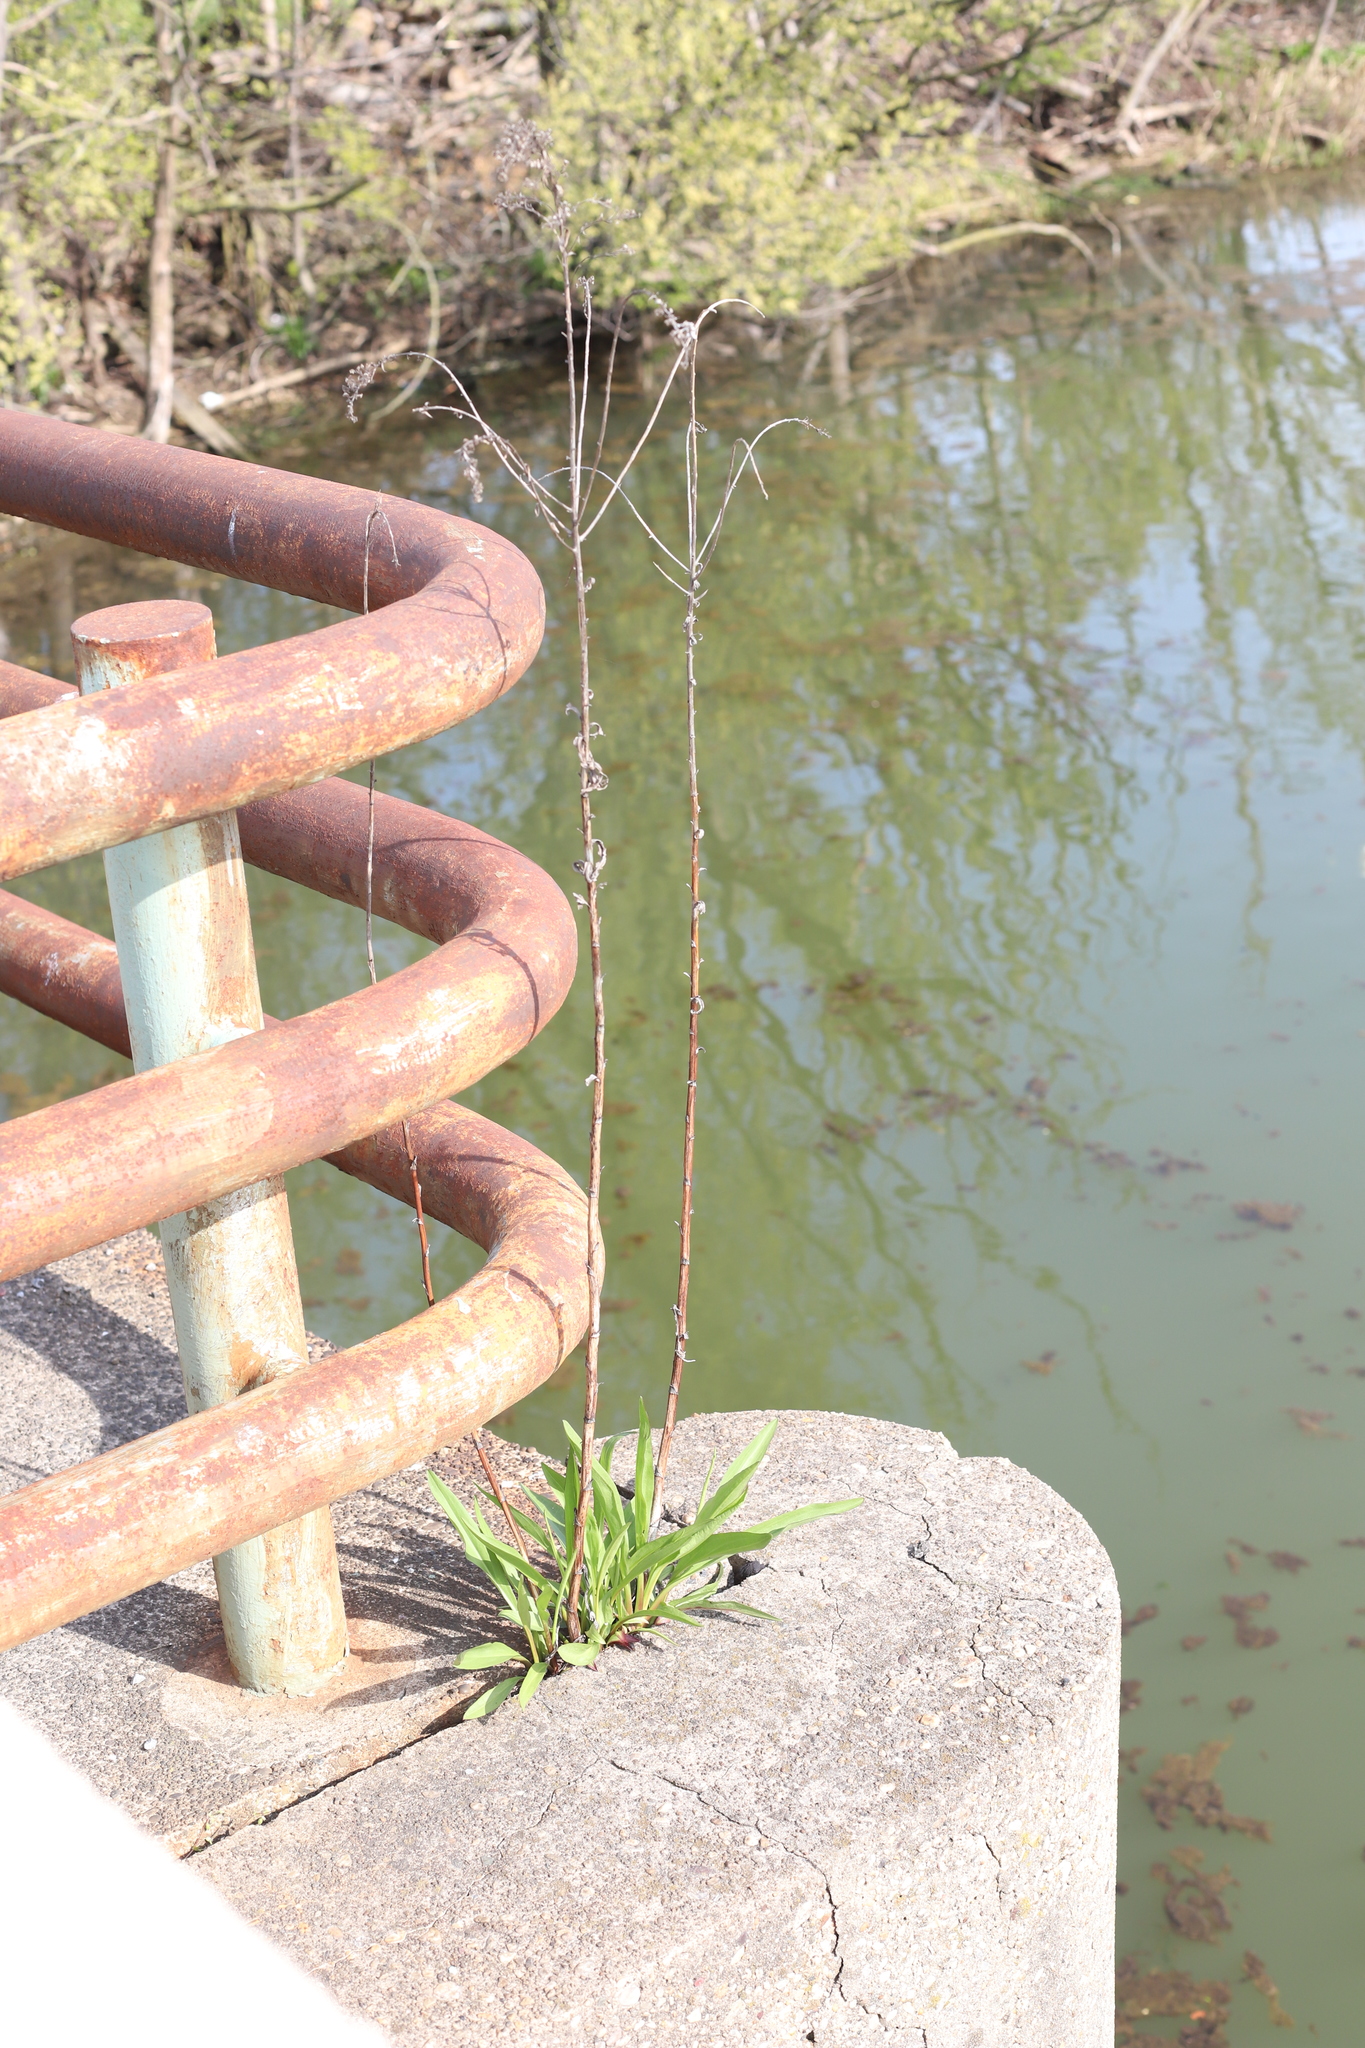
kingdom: Plantae
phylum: Tracheophyta
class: Magnoliopsida
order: Asterales
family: Asteraceae
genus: Solidago
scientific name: Solidago sempervirens
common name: Salt-marsh goldenrod
